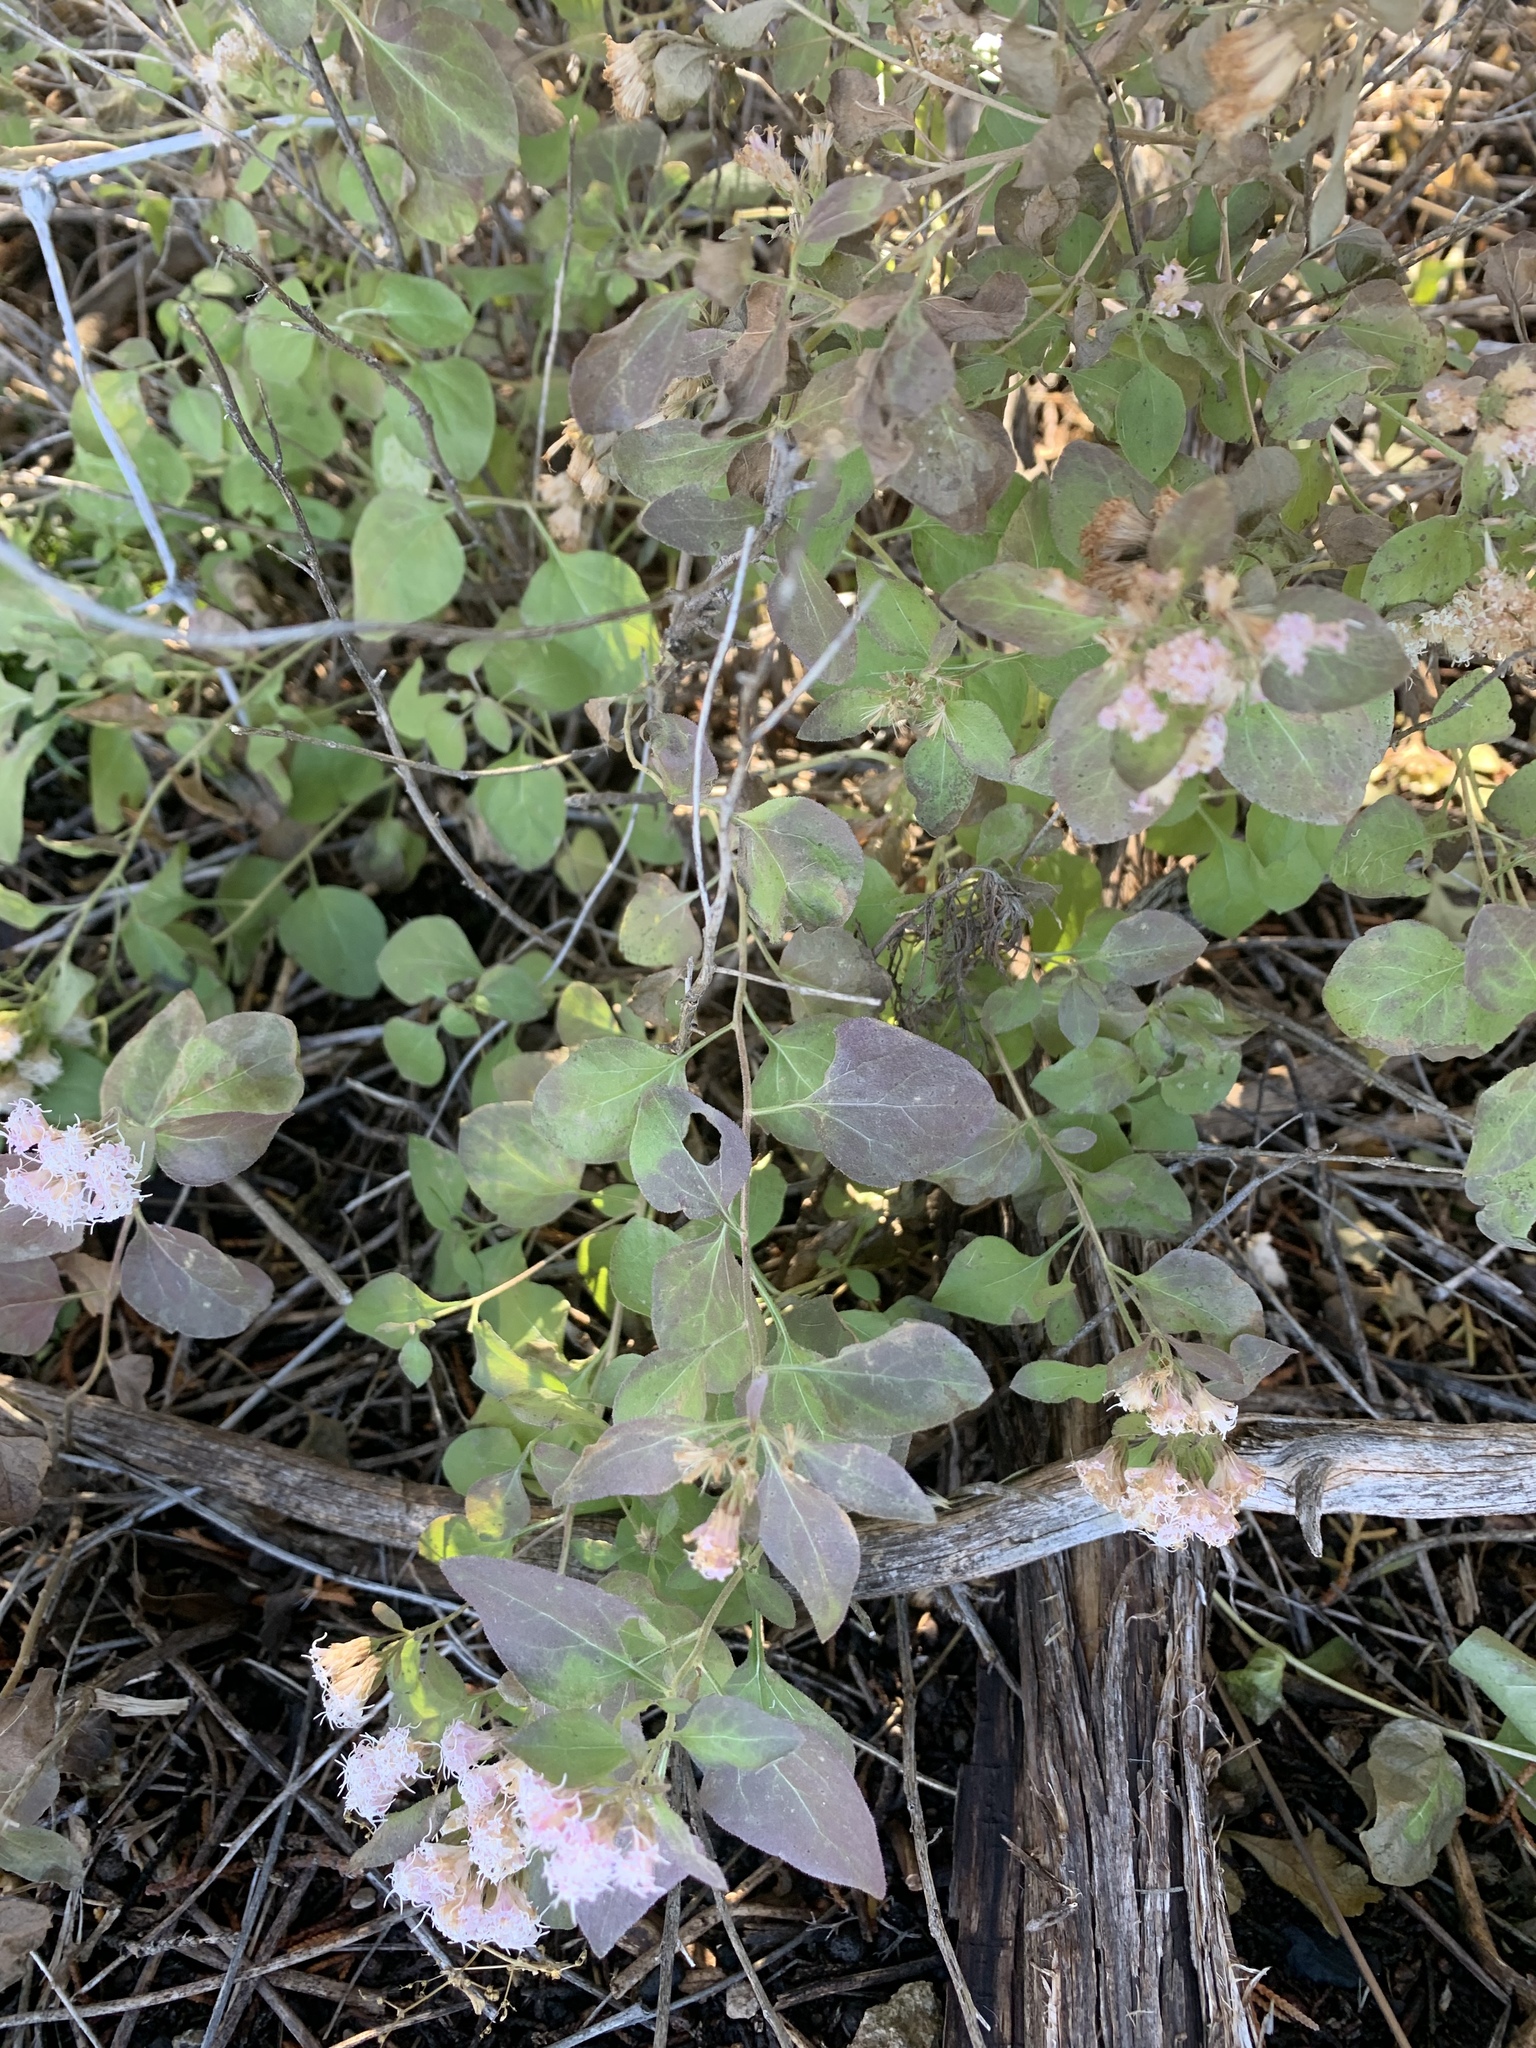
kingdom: Plantae
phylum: Tracheophyta
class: Magnoliopsida
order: Asterales
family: Asteraceae
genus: Ageratina
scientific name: Ageratina herbacea
